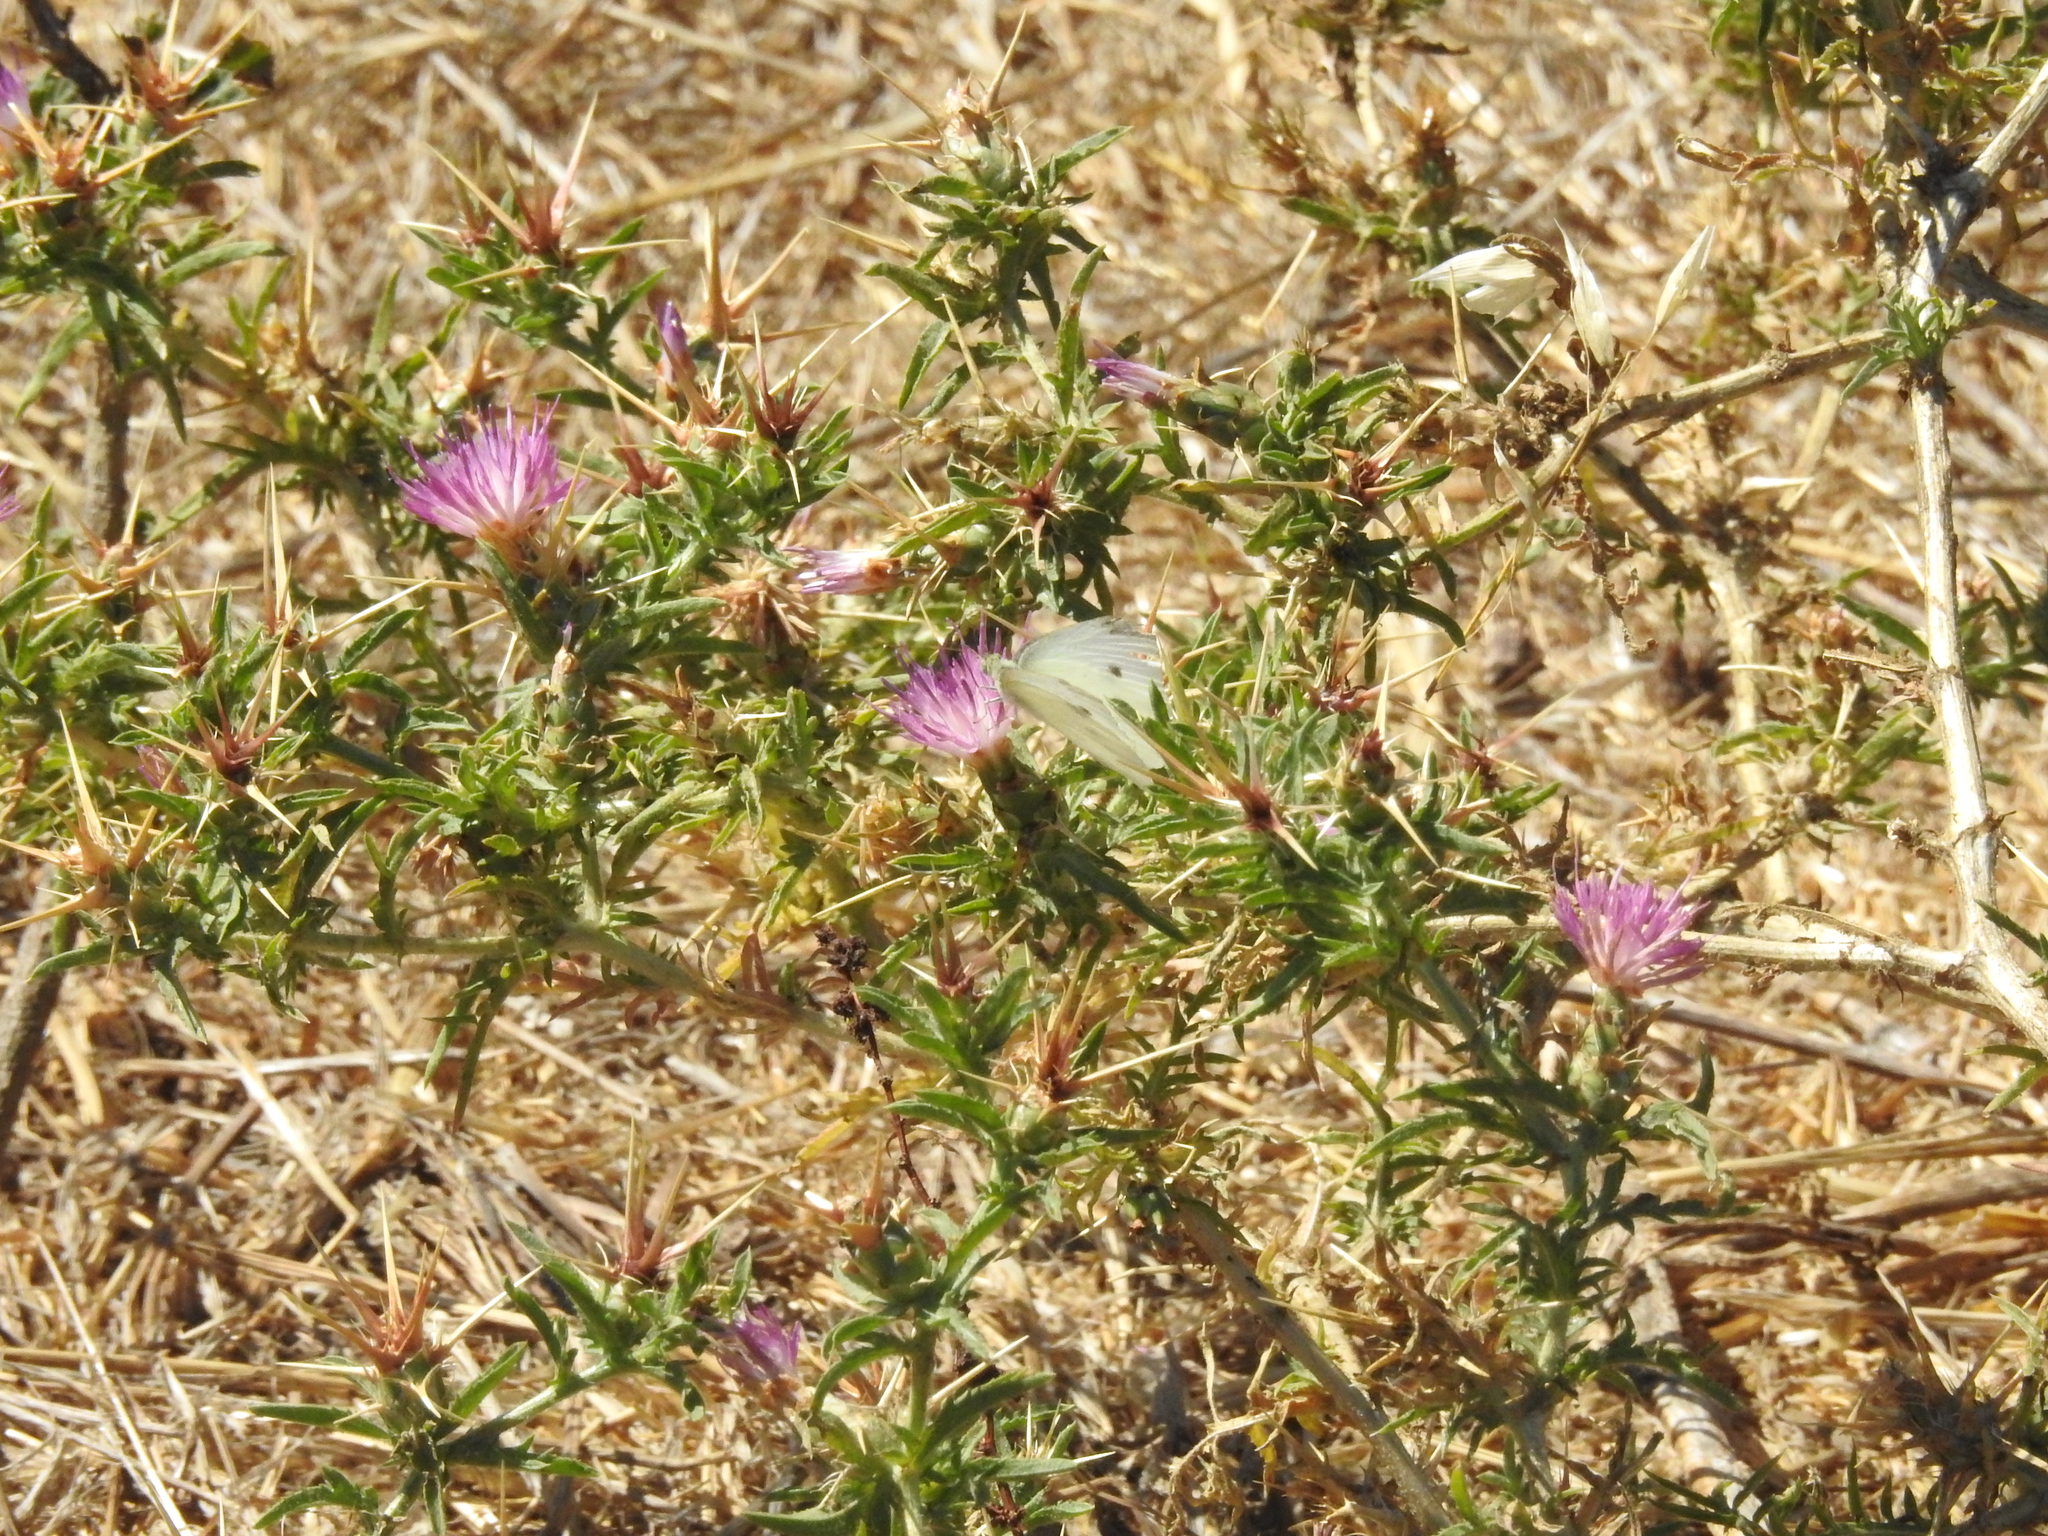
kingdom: Plantae
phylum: Tracheophyta
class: Magnoliopsida
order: Asterales
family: Asteraceae
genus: Centaurea
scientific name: Centaurea calcitrapa
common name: Red star-thistle
